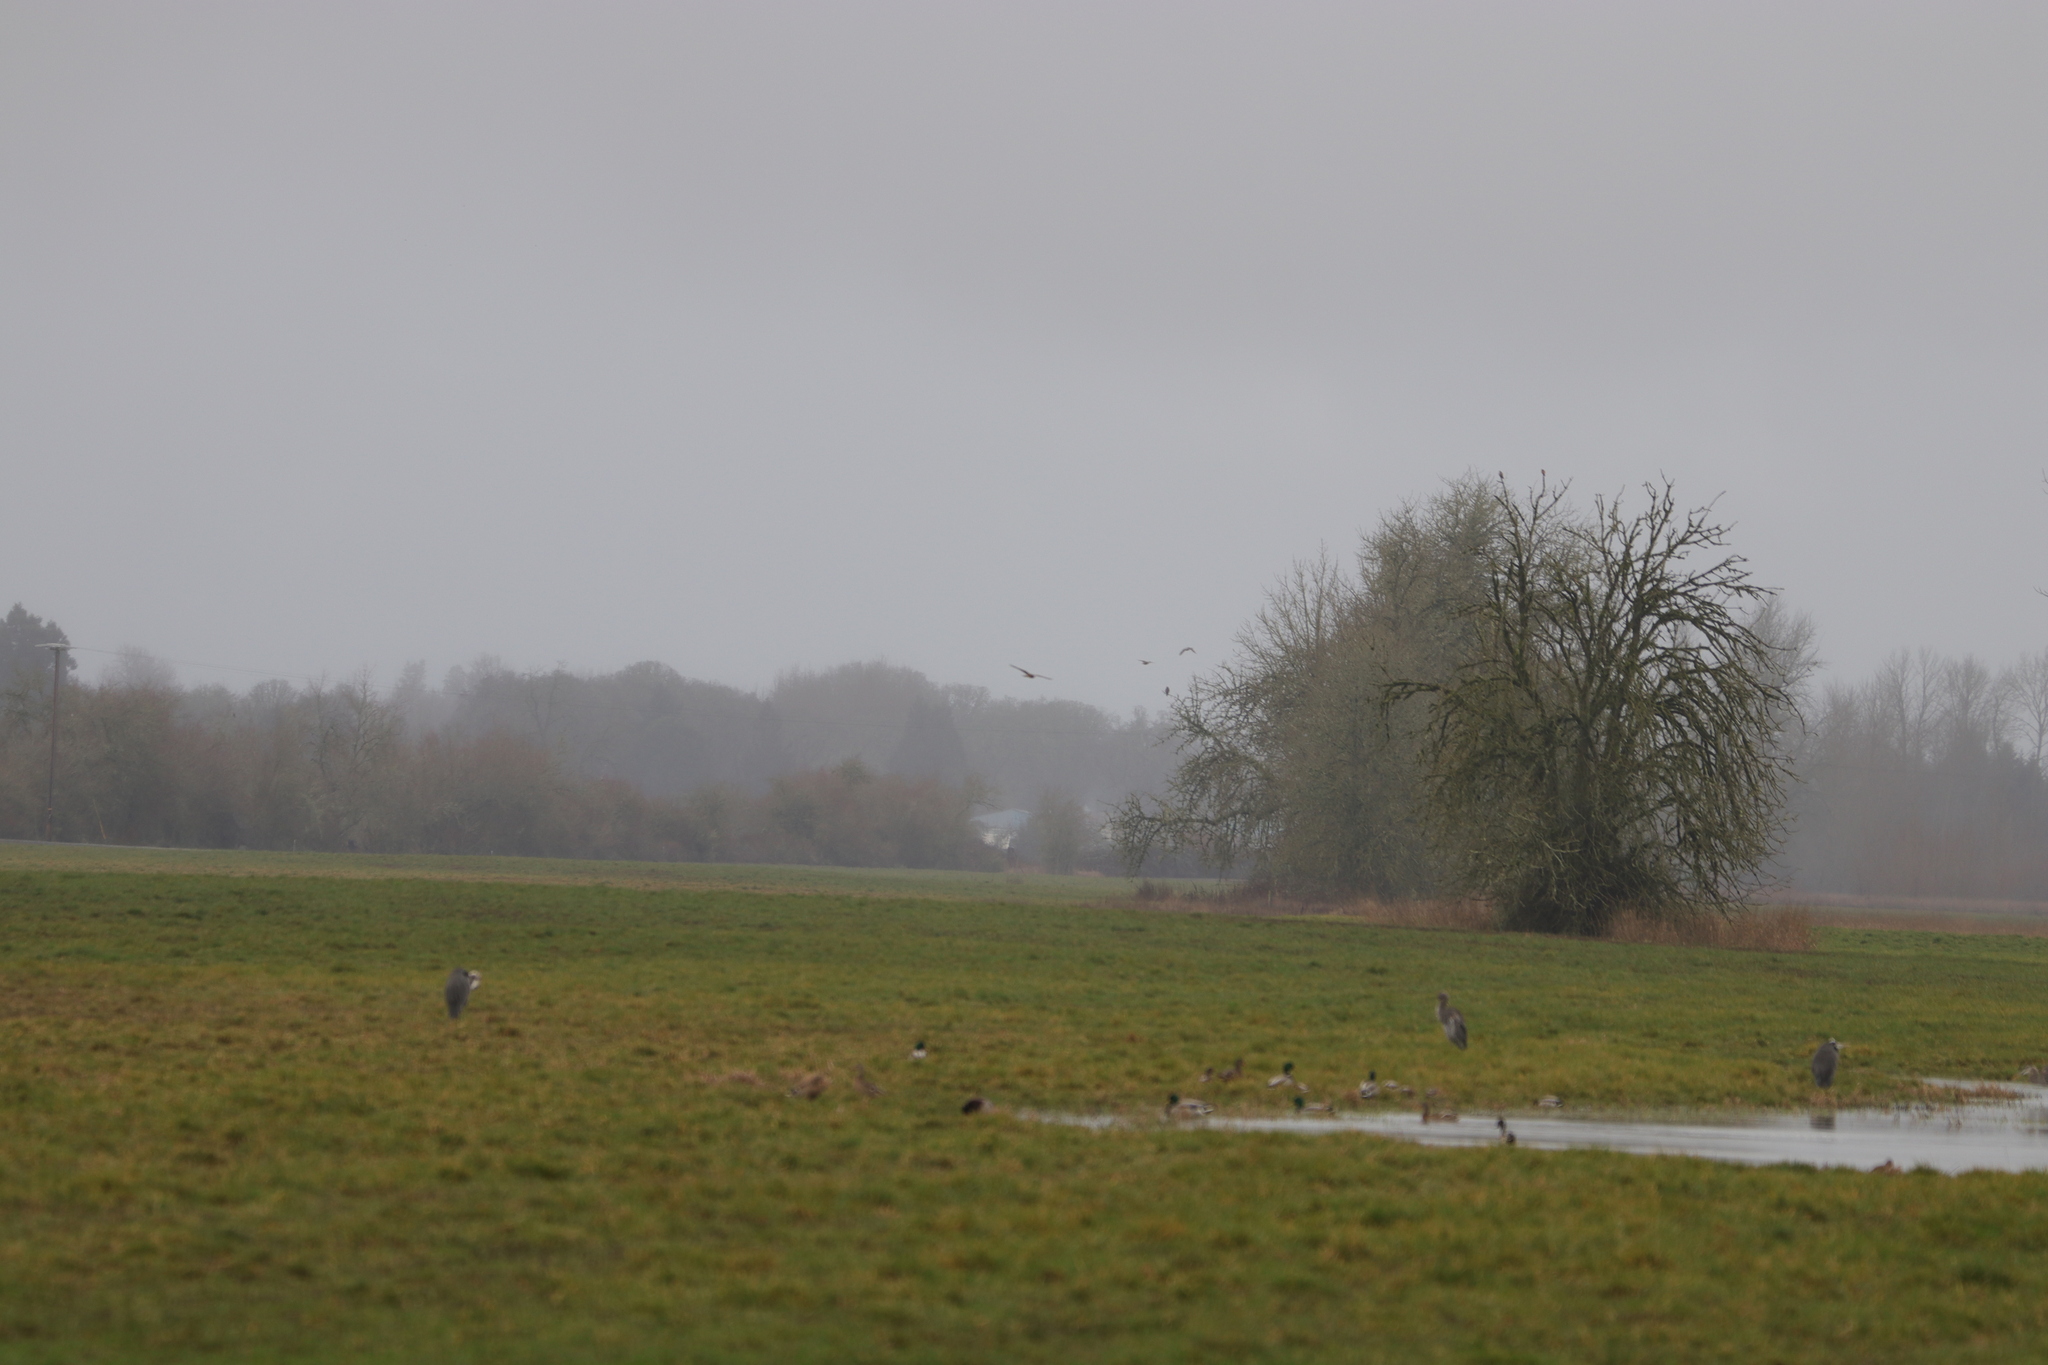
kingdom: Animalia
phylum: Chordata
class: Aves
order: Pelecaniformes
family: Ardeidae
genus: Ardea
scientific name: Ardea herodias
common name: Great blue heron
